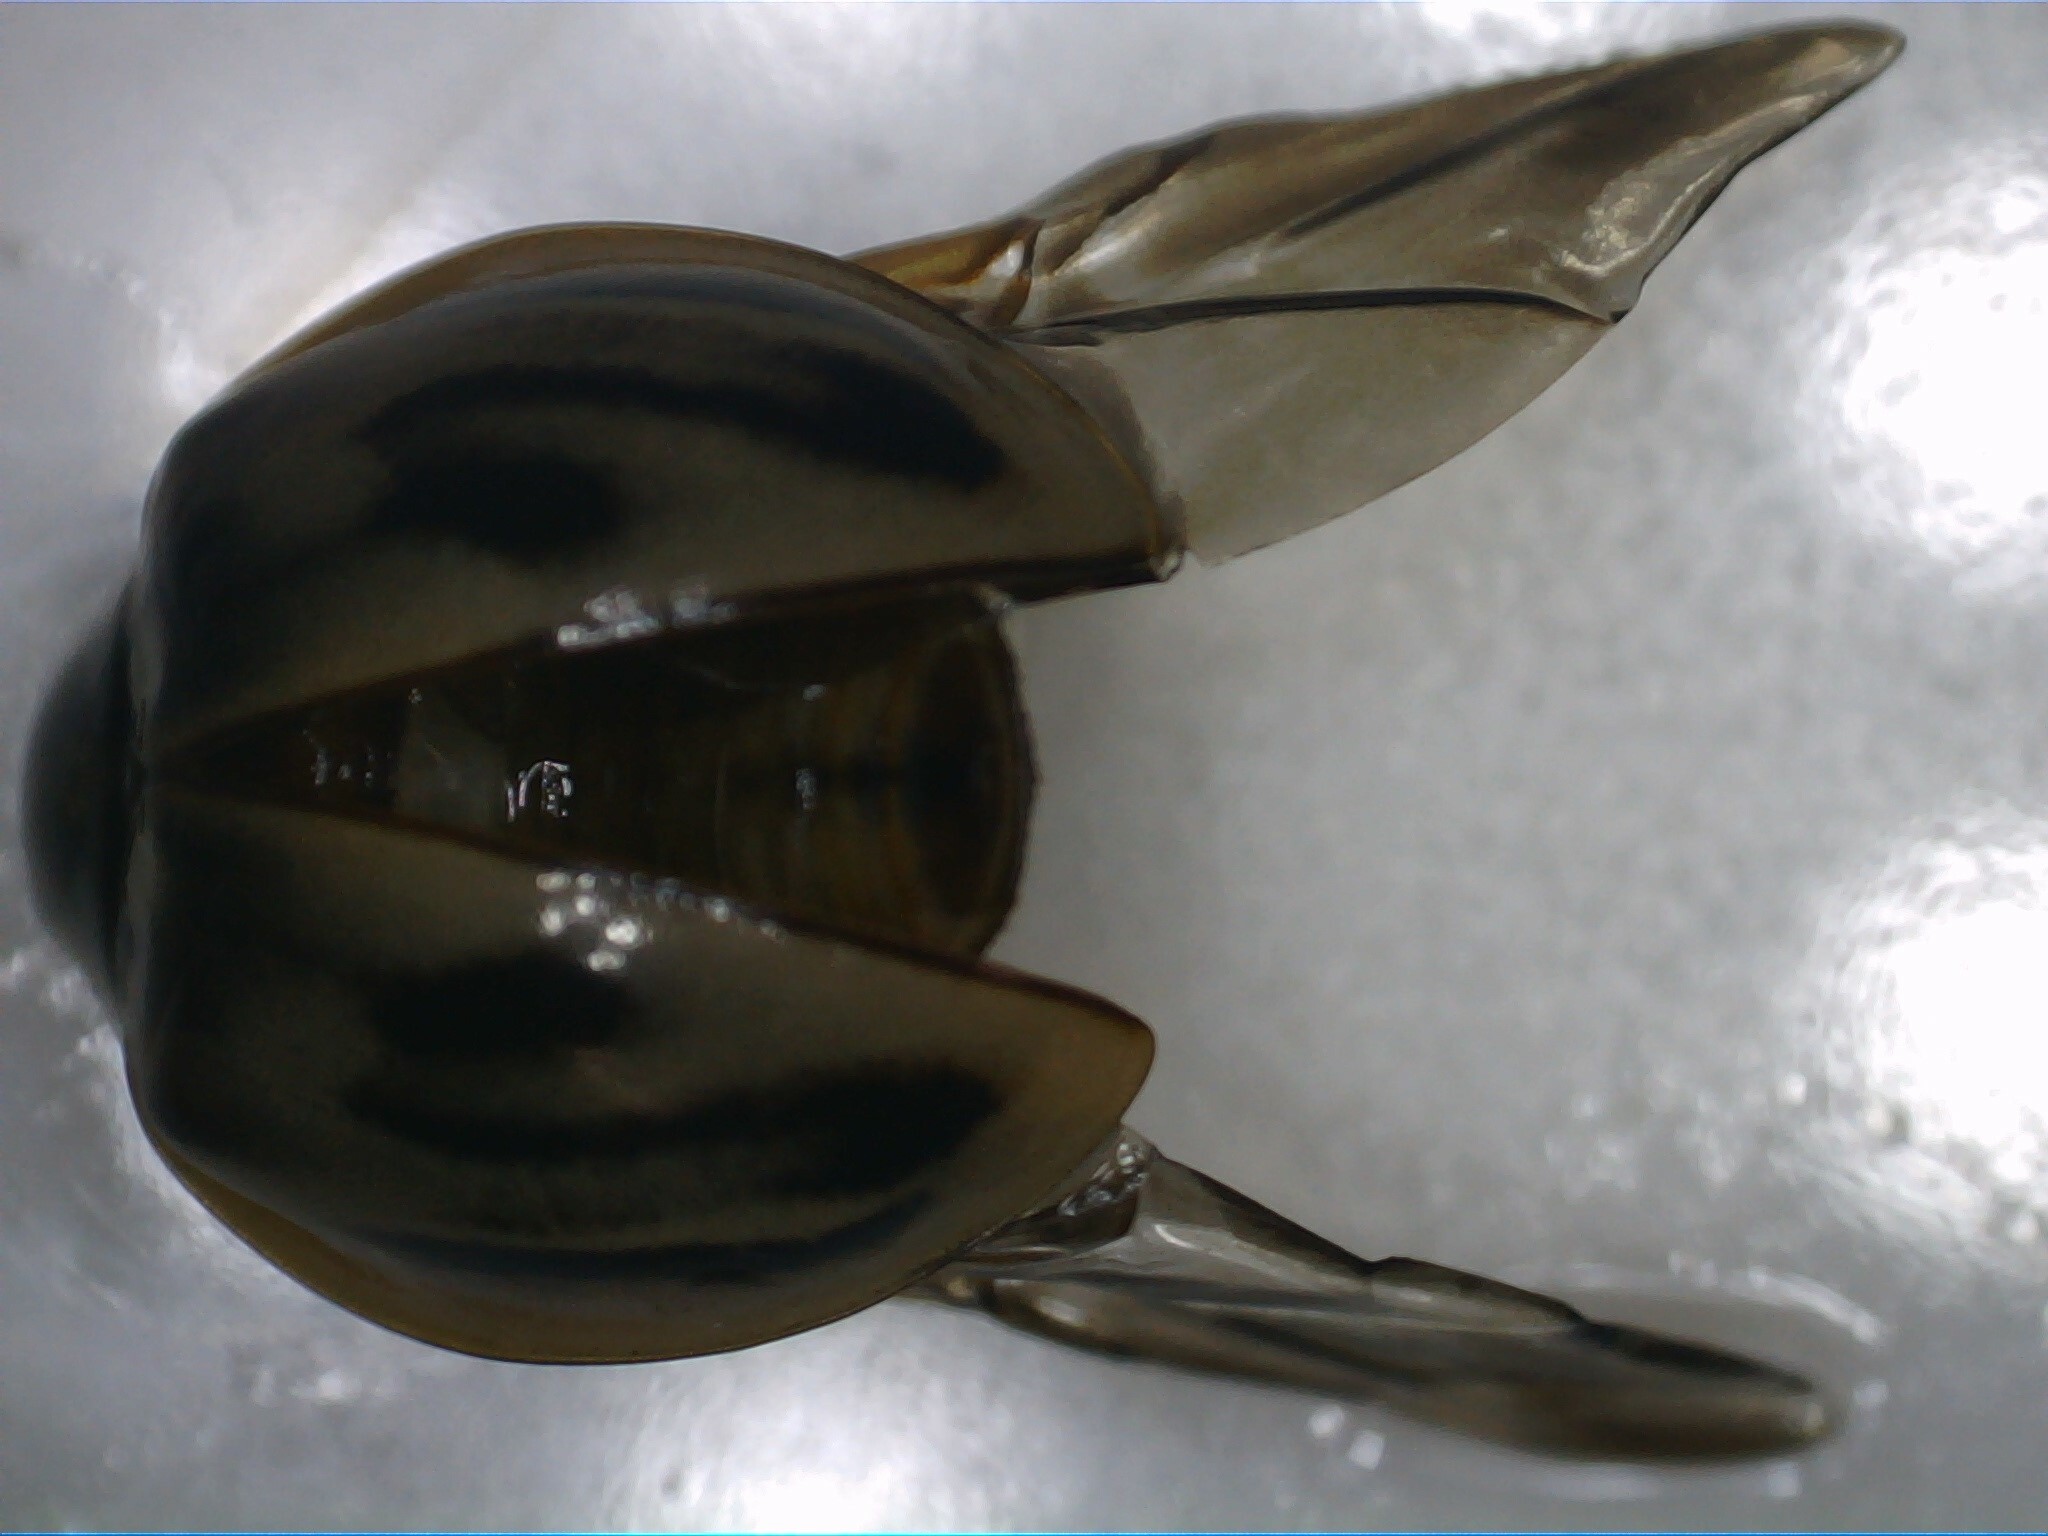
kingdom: Animalia
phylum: Arthropoda
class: Insecta
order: Coleoptera
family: Coccinellidae
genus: Myzia
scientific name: Myzia subvittata
